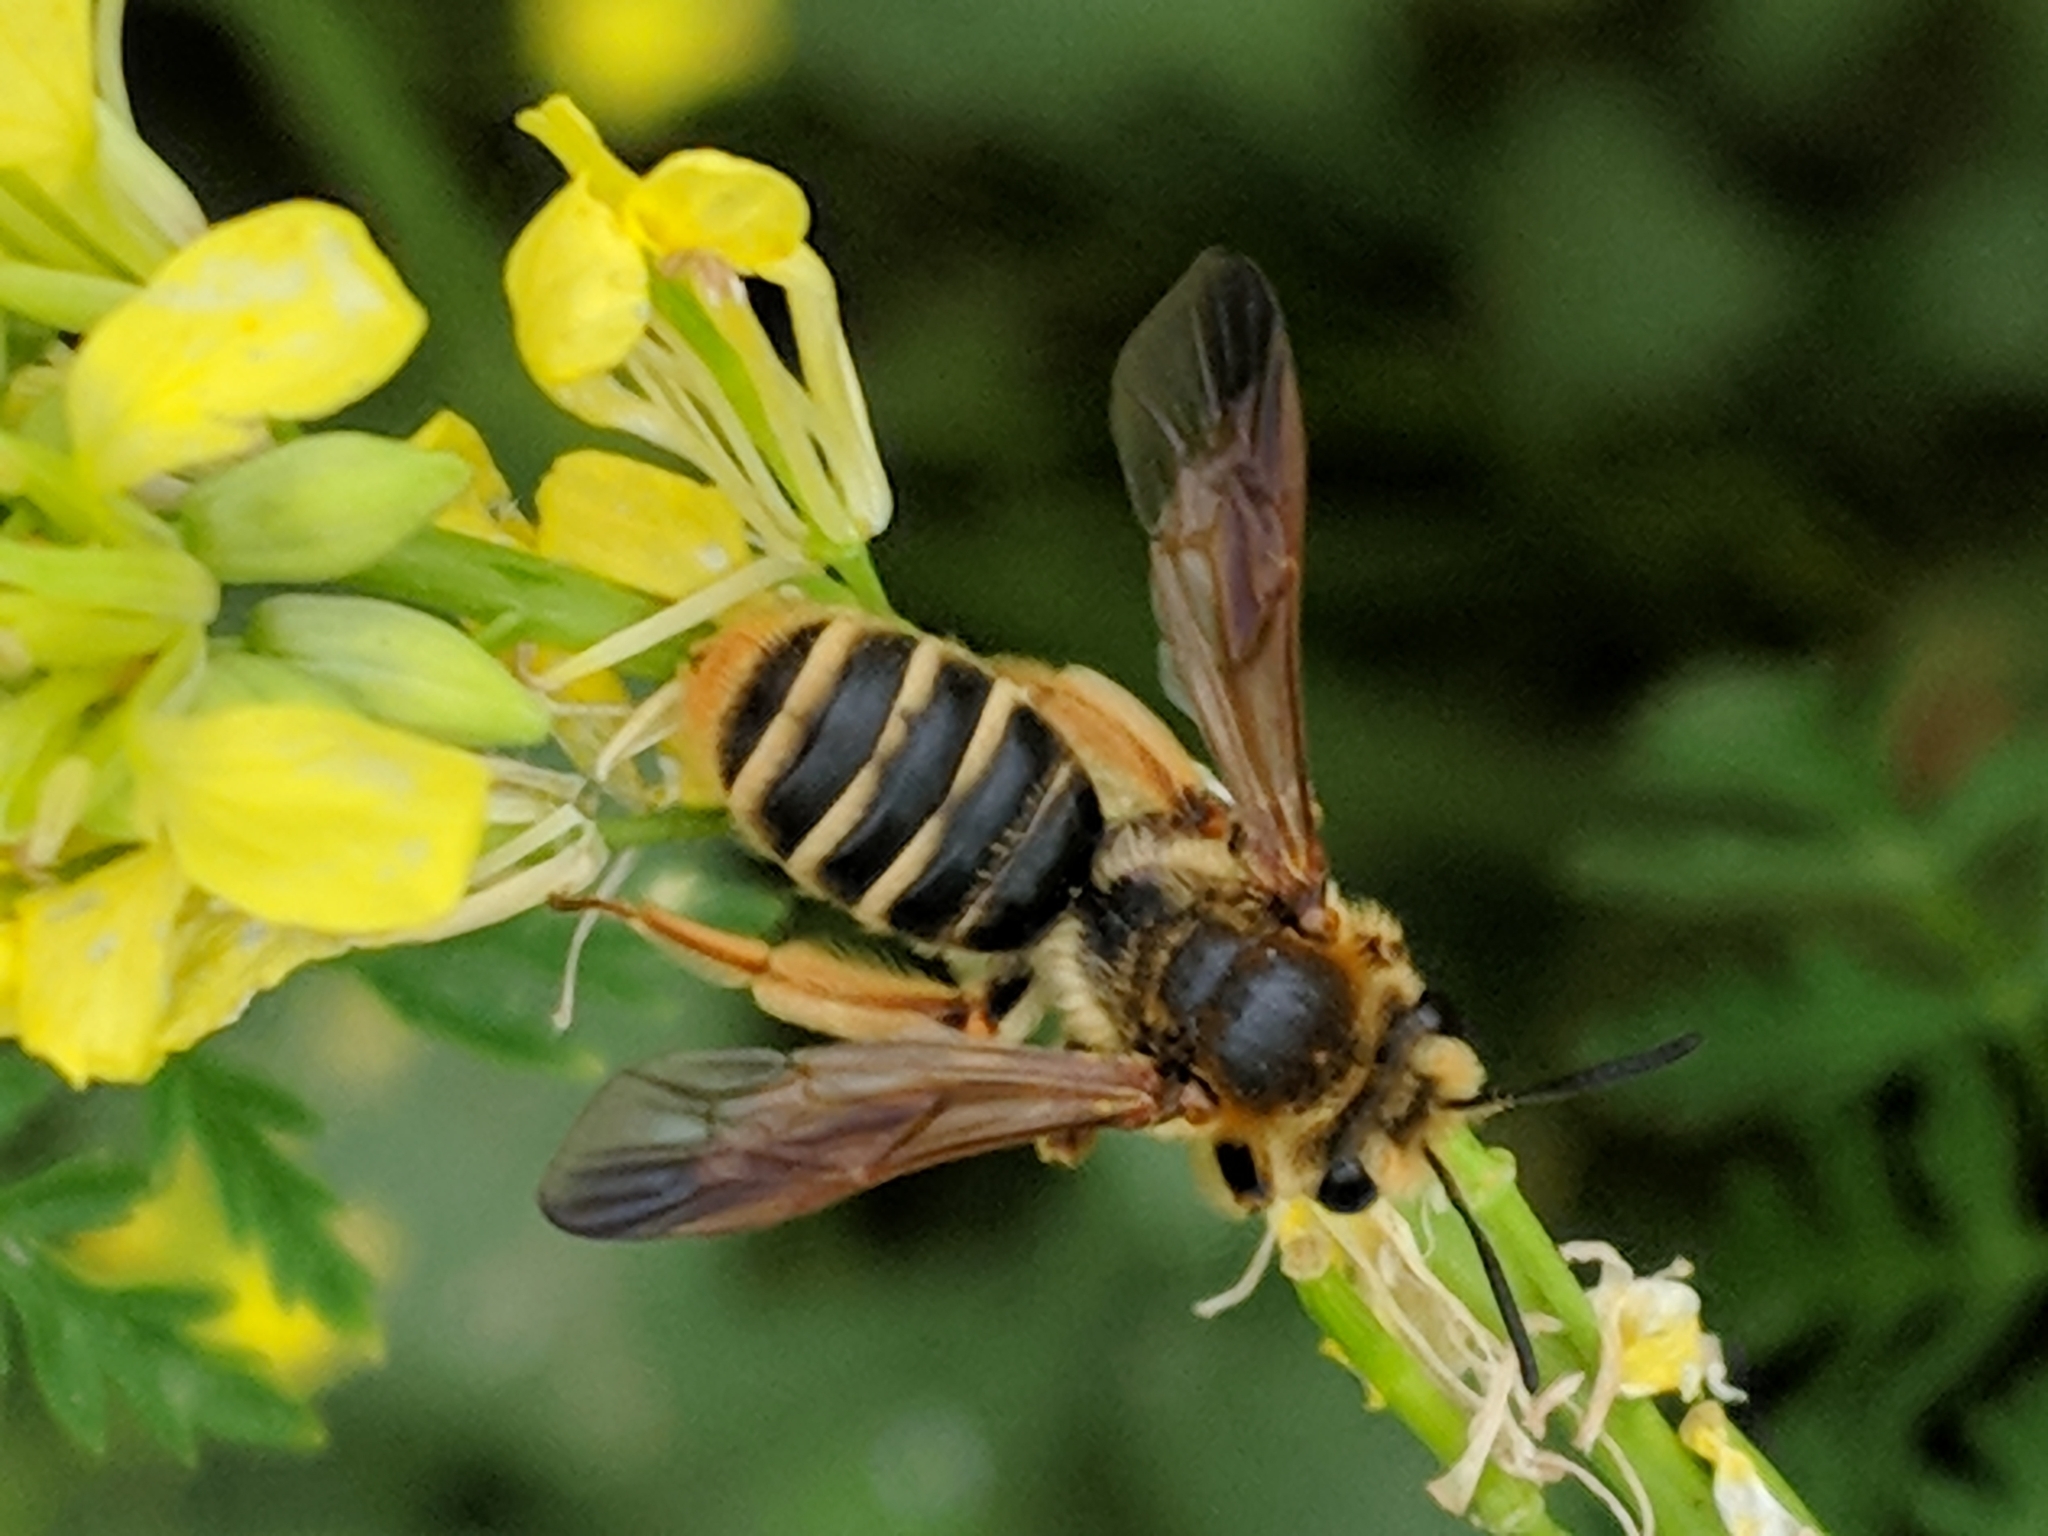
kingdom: Animalia
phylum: Arthropoda
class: Insecta
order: Hymenoptera
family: Andrenidae
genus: Andrena
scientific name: Andrena prunorum
